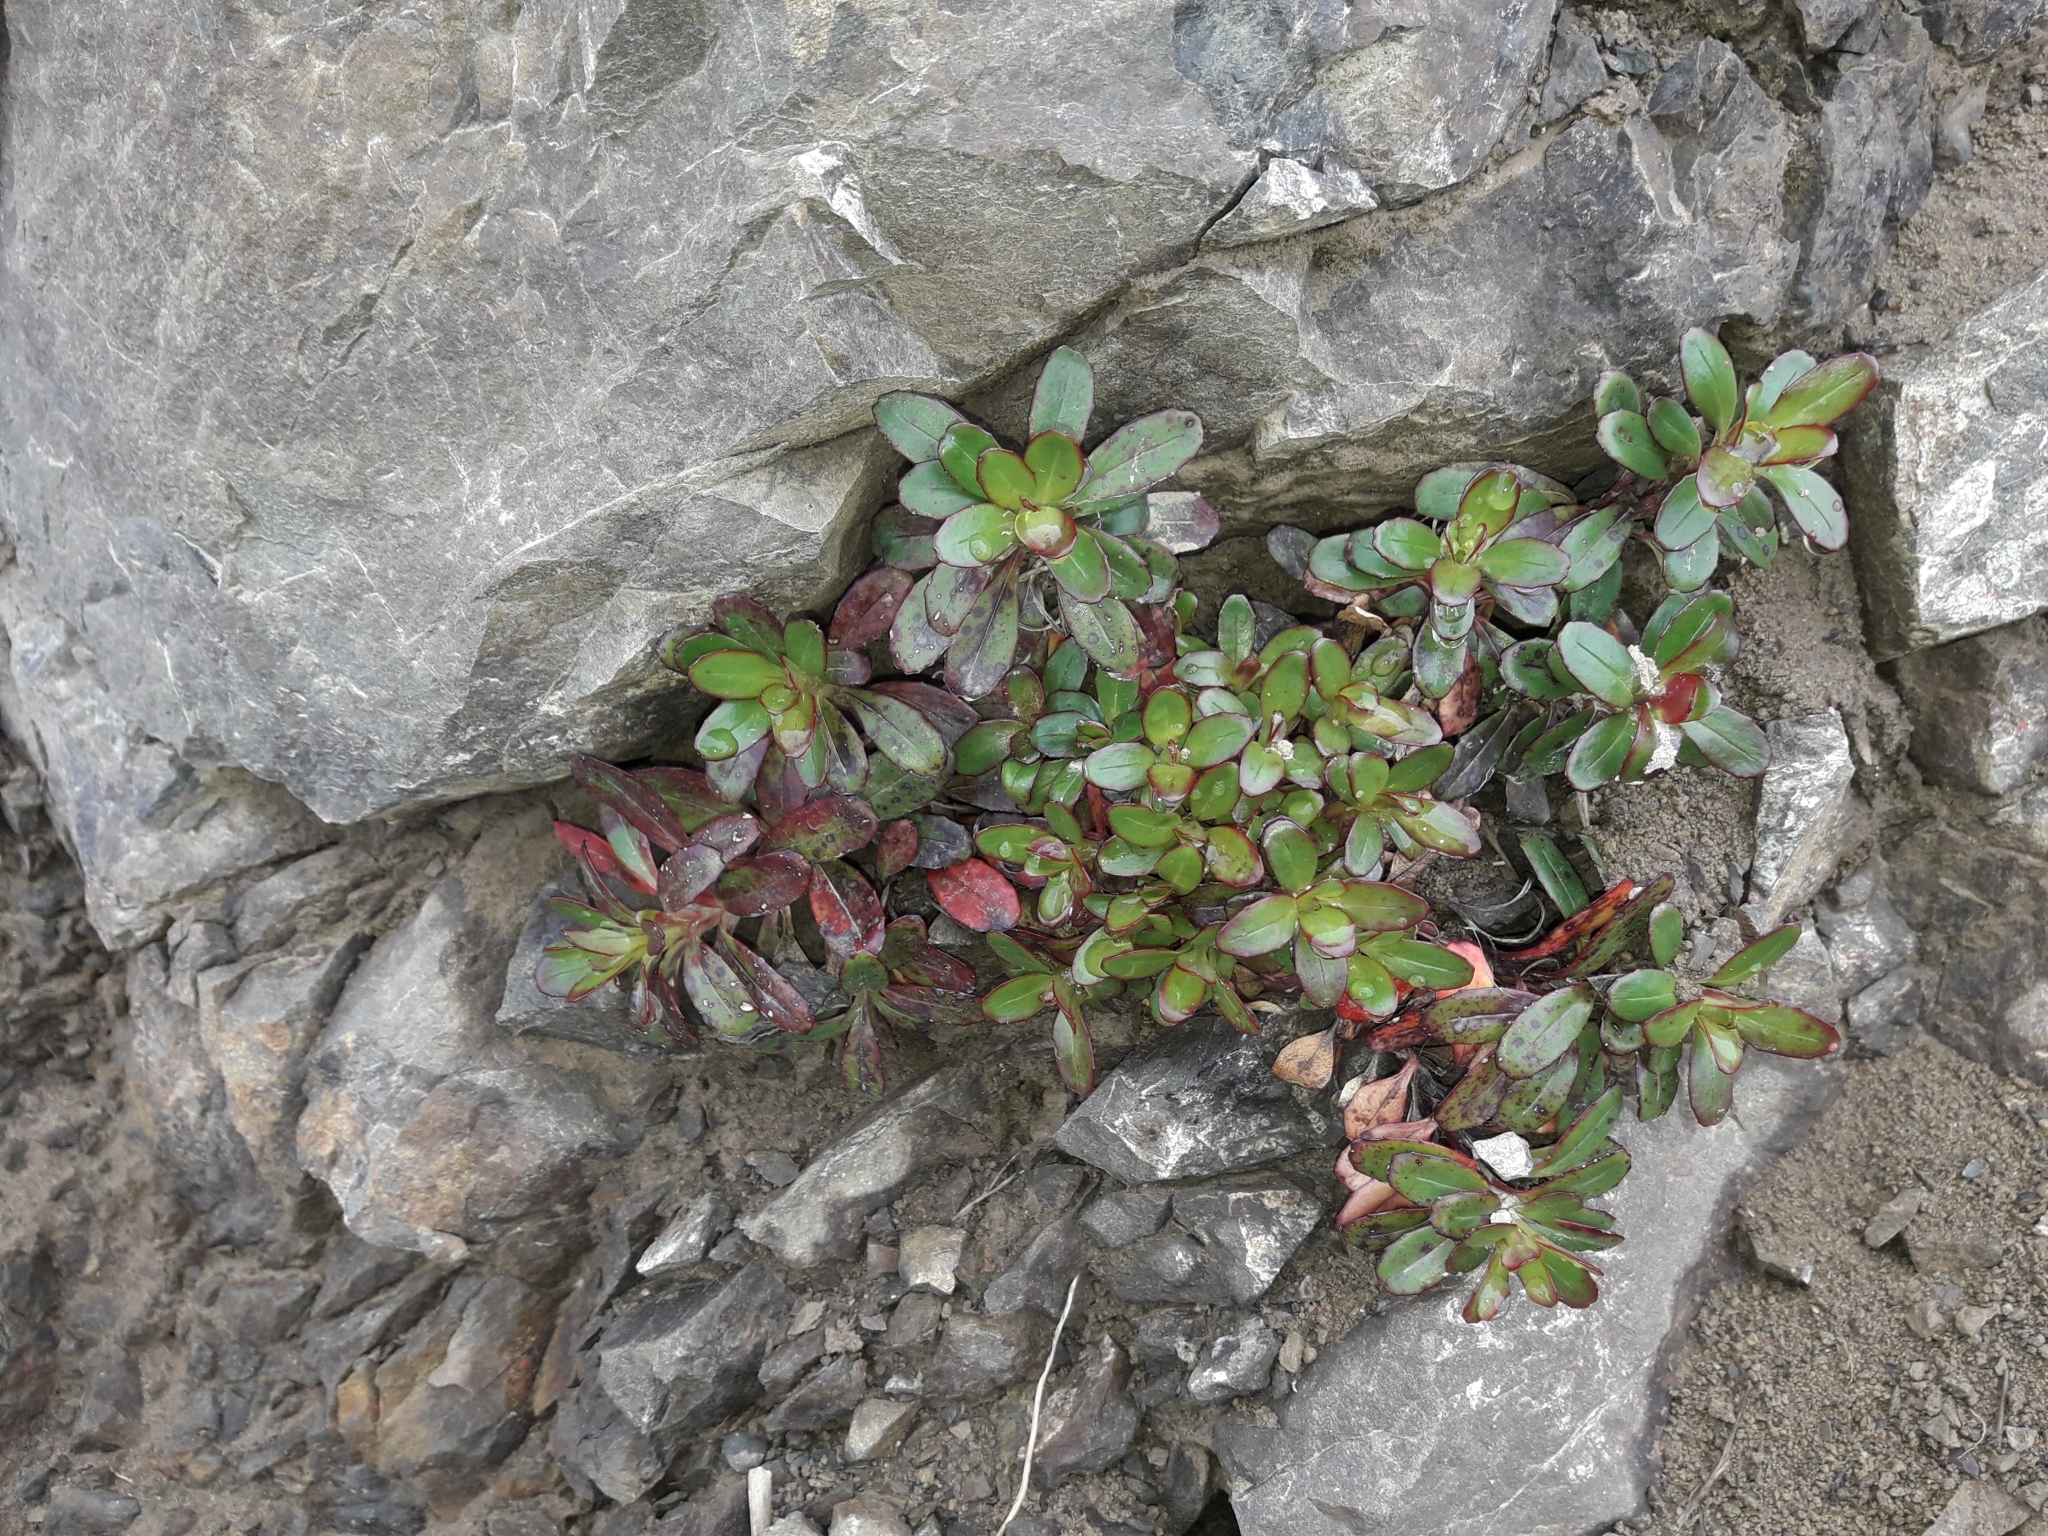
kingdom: Plantae
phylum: Tracheophyta
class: Magnoliopsida
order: Myrtales
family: Onagraceae
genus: Epilobium
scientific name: Epilobium brevipes
